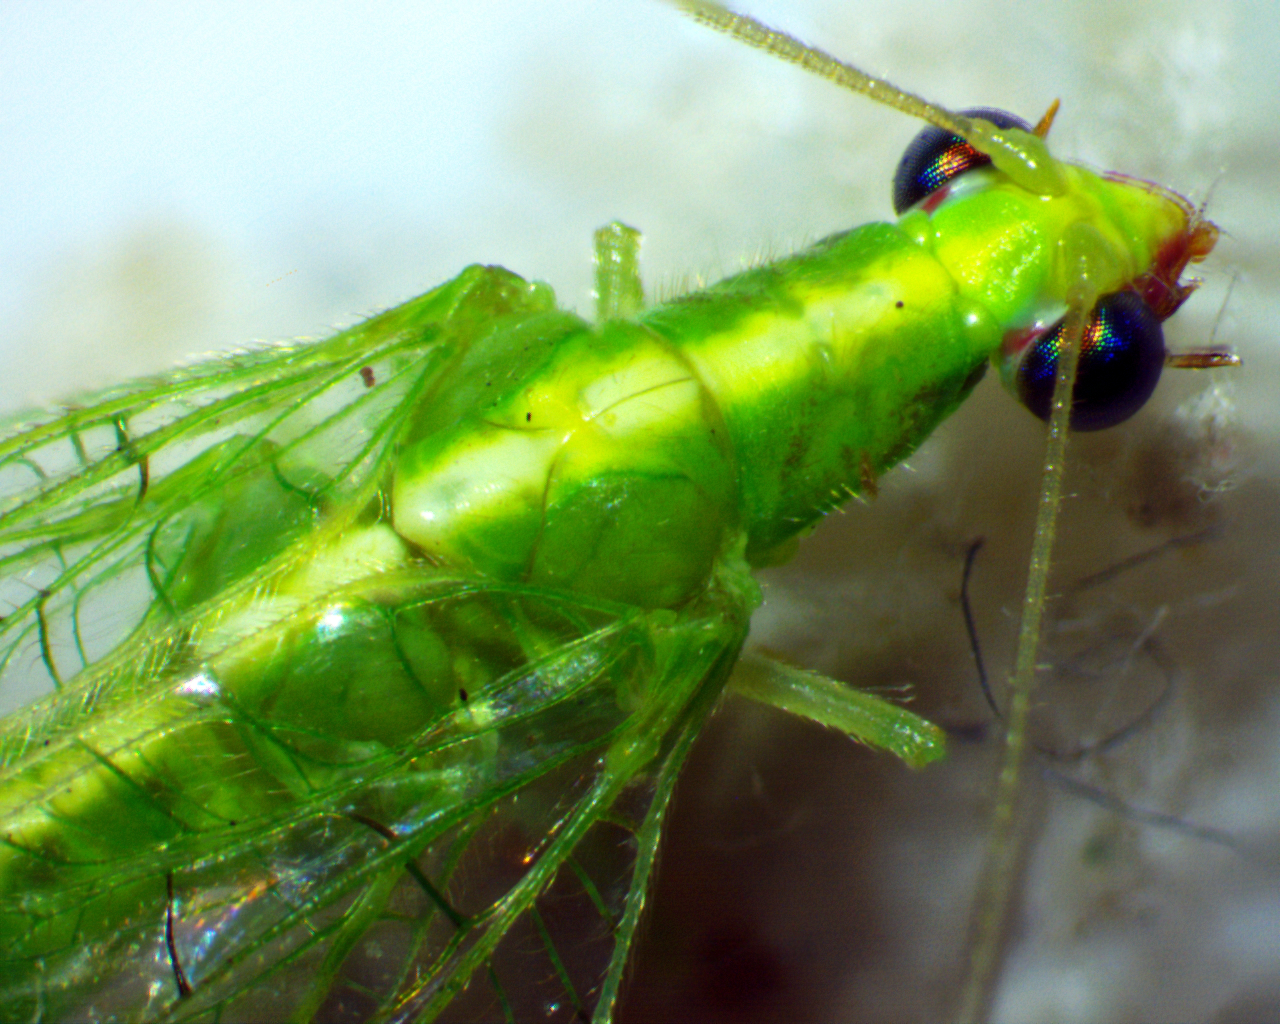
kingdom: Animalia
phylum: Arthropoda
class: Insecta
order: Neuroptera
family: Chrysopidae
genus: Chrysoperla
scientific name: Chrysoperla rufilabris
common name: Red-lipped green lacewing
